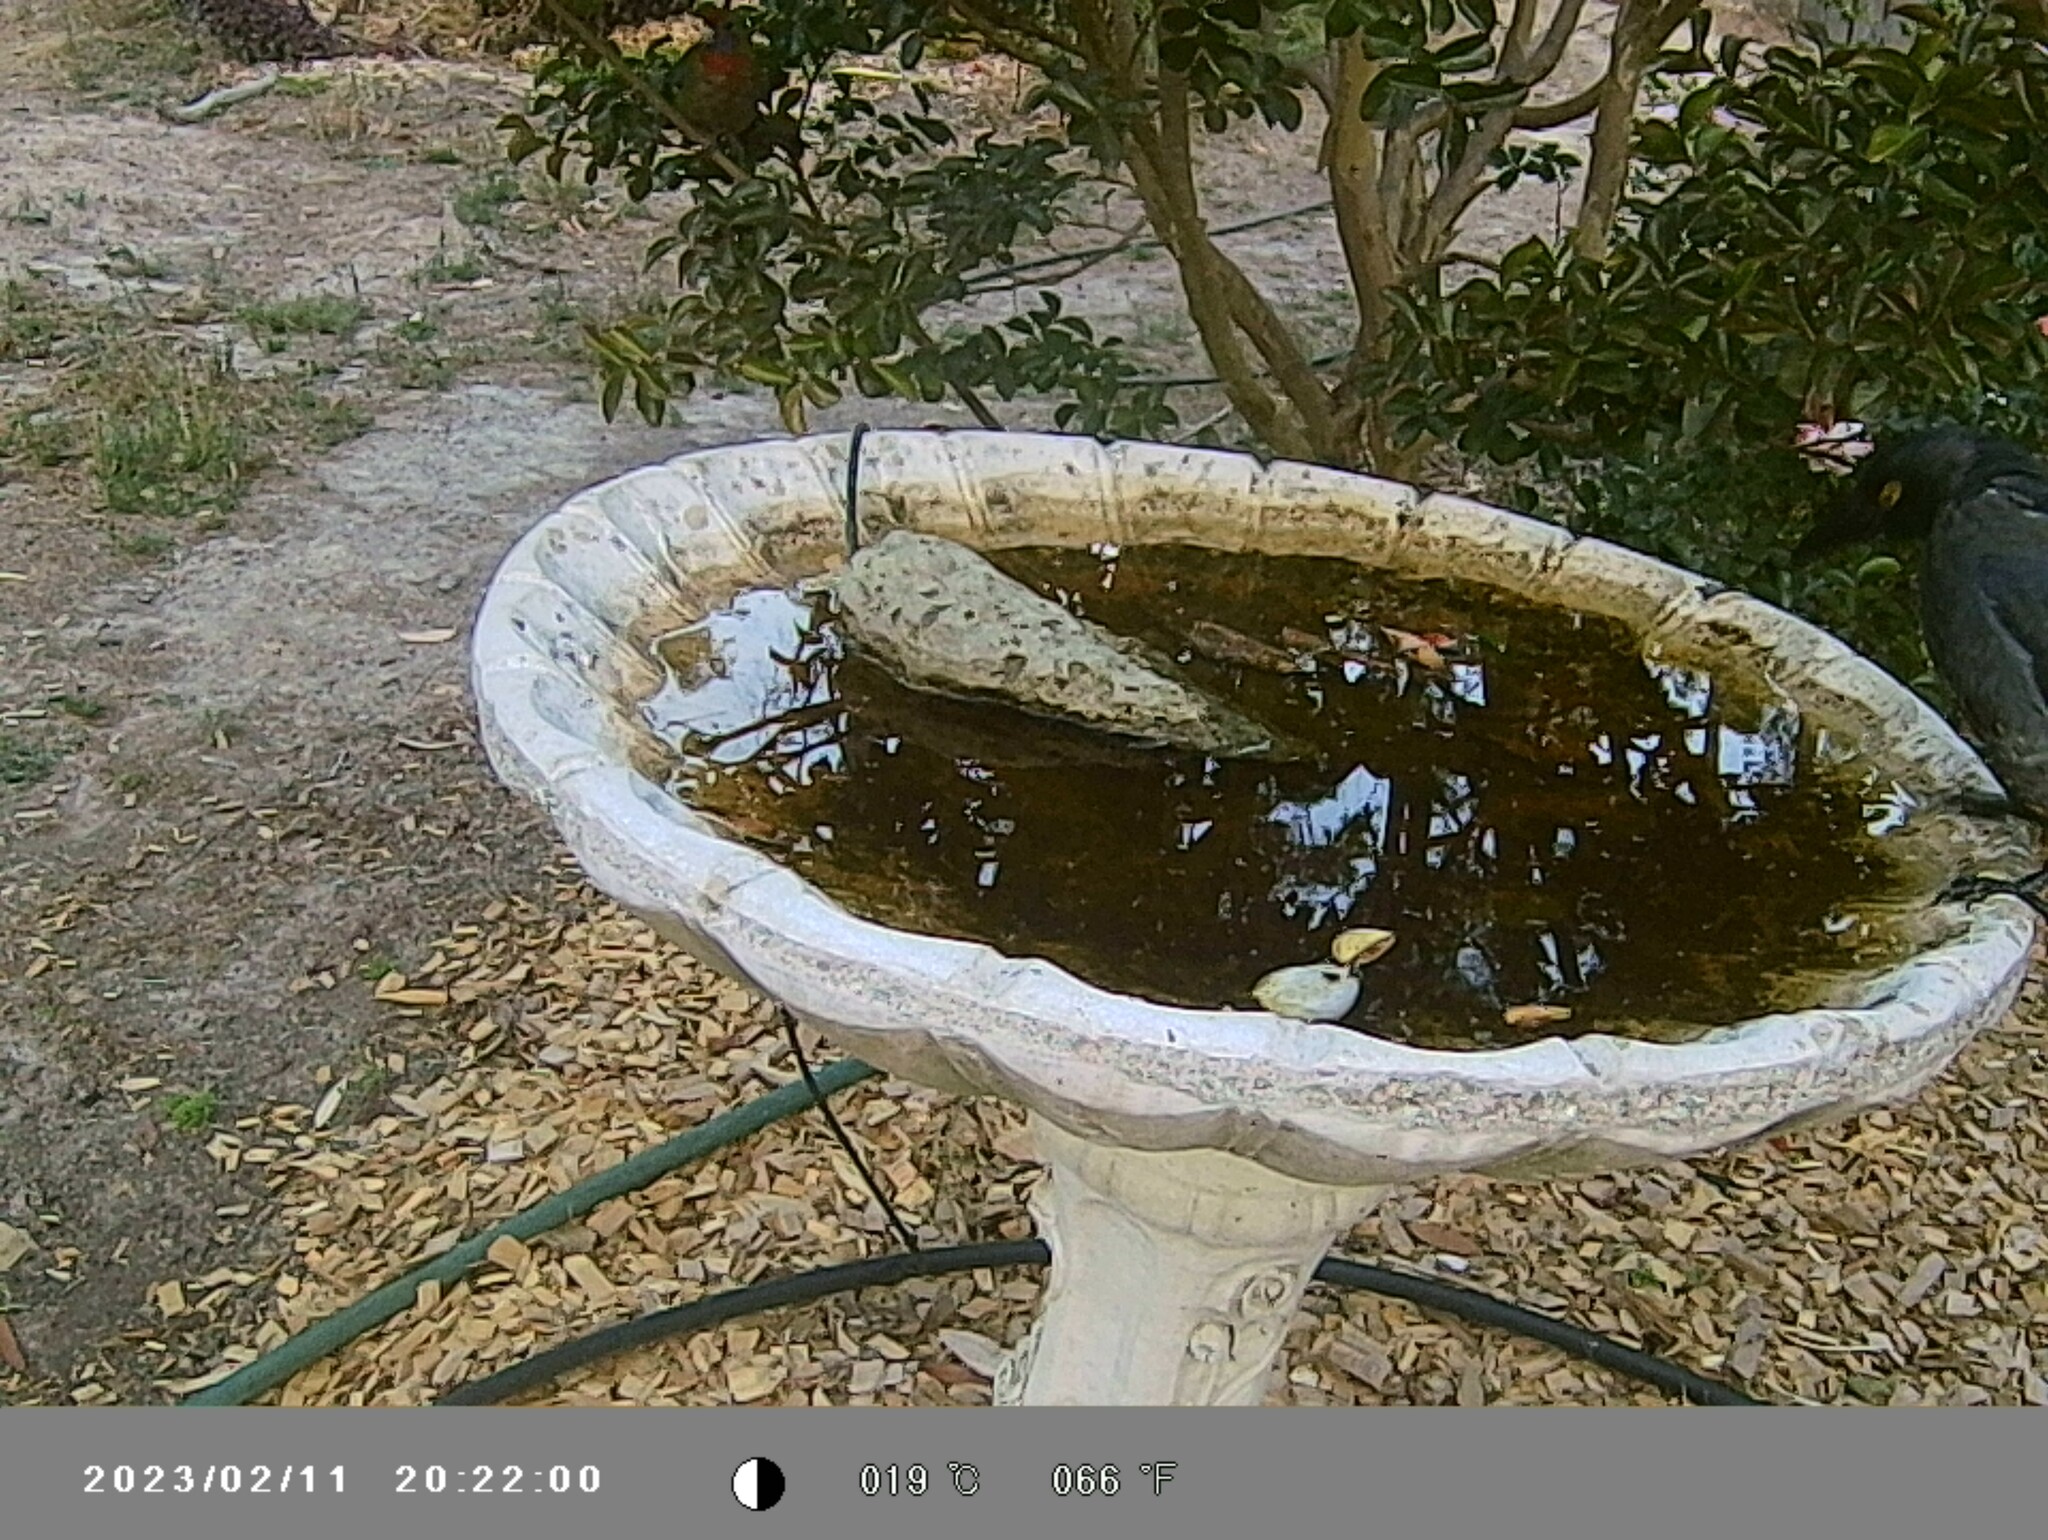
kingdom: Animalia
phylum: Chordata
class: Aves
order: Passeriformes
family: Cracticidae
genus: Strepera
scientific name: Strepera graculina
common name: Pied currawong
